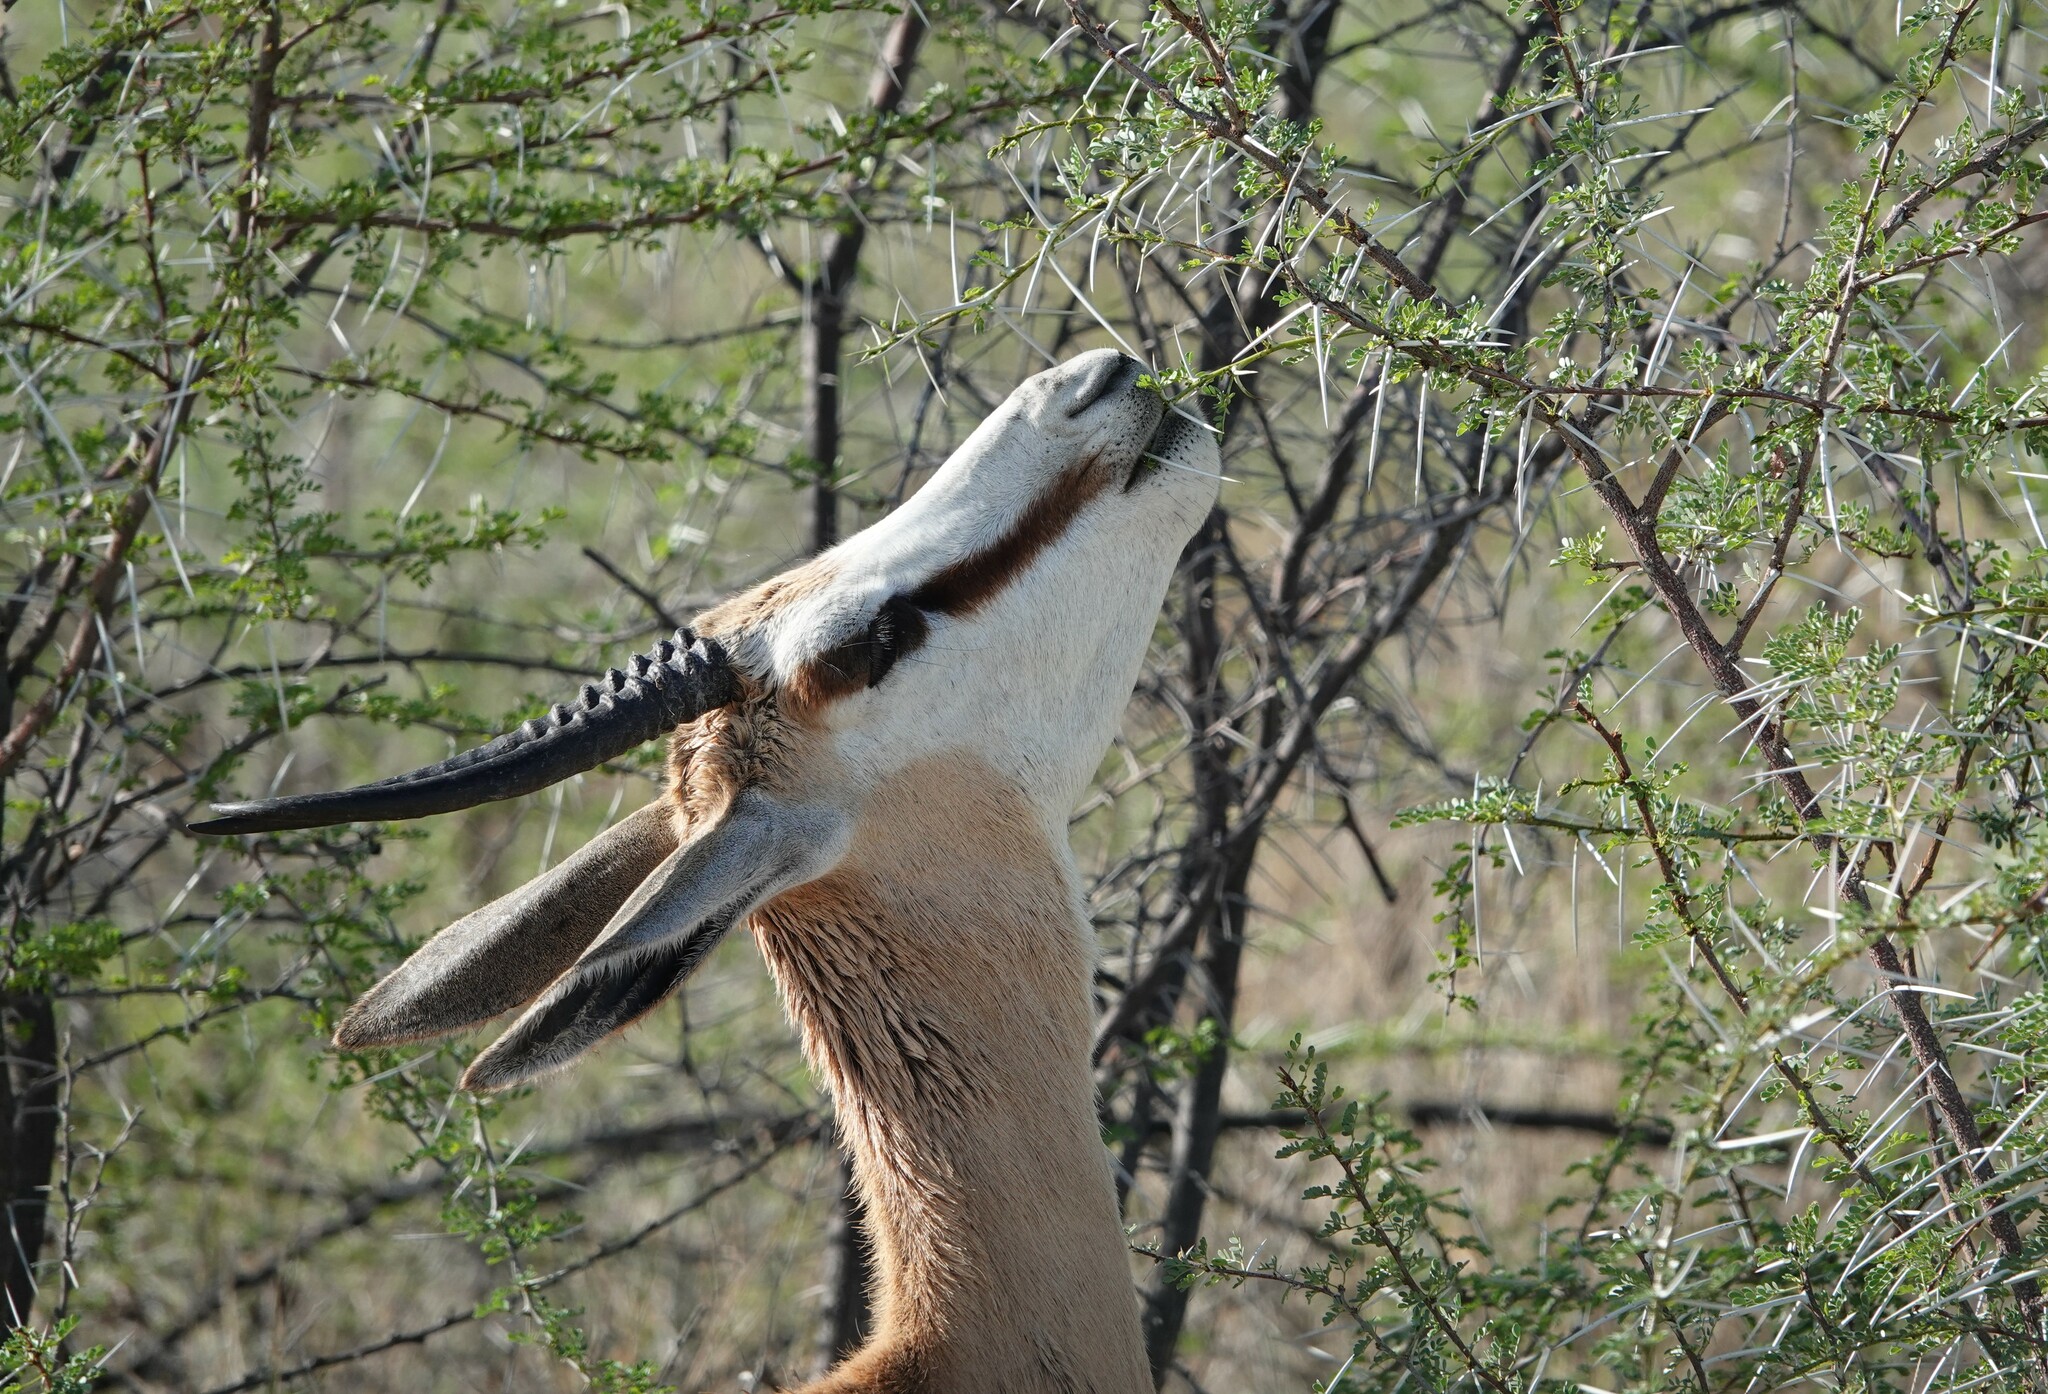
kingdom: Animalia
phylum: Chordata
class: Mammalia
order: Artiodactyla
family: Bovidae
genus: Antidorcas
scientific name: Antidorcas marsupialis
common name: Springbok
